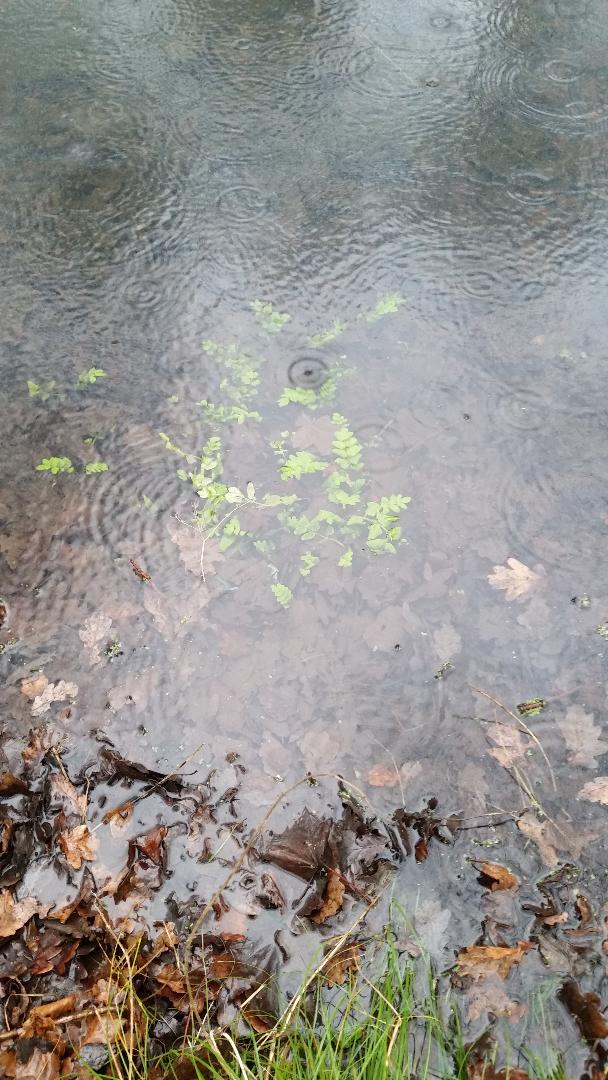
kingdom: Plantae
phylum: Tracheophyta
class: Magnoliopsida
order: Apiales
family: Apiaceae
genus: Helosciadium
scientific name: Helosciadium nodiflorum
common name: Fool's-watercress
